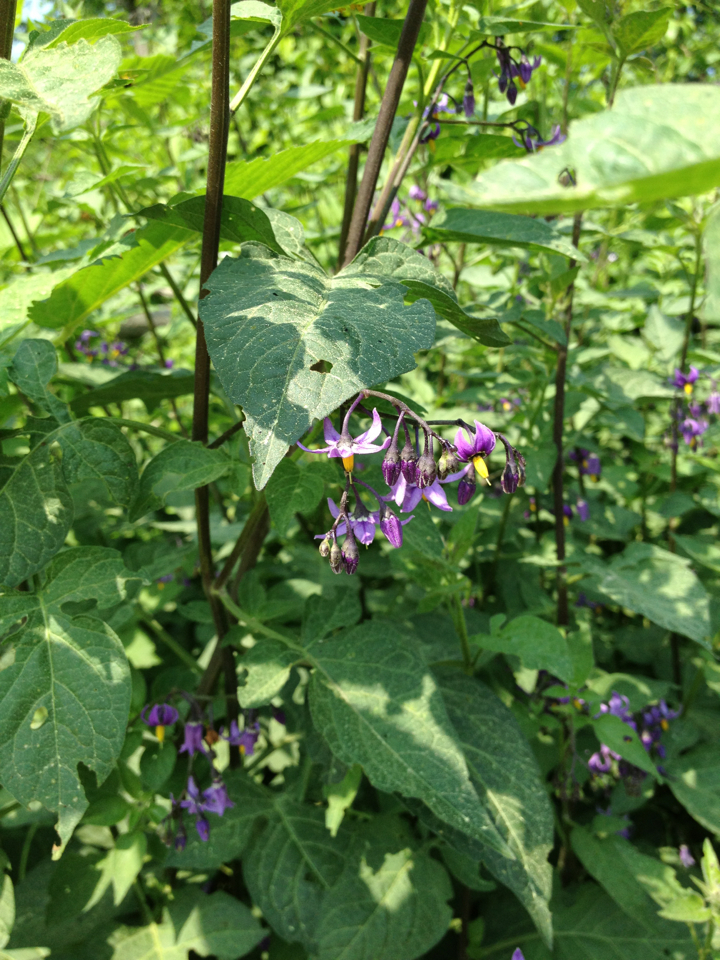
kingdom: Plantae
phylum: Tracheophyta
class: Magnoliopsida
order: Solanales
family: Solanaceae
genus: Solanum
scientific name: Solanum dulcamara
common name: Climbing nightshade
